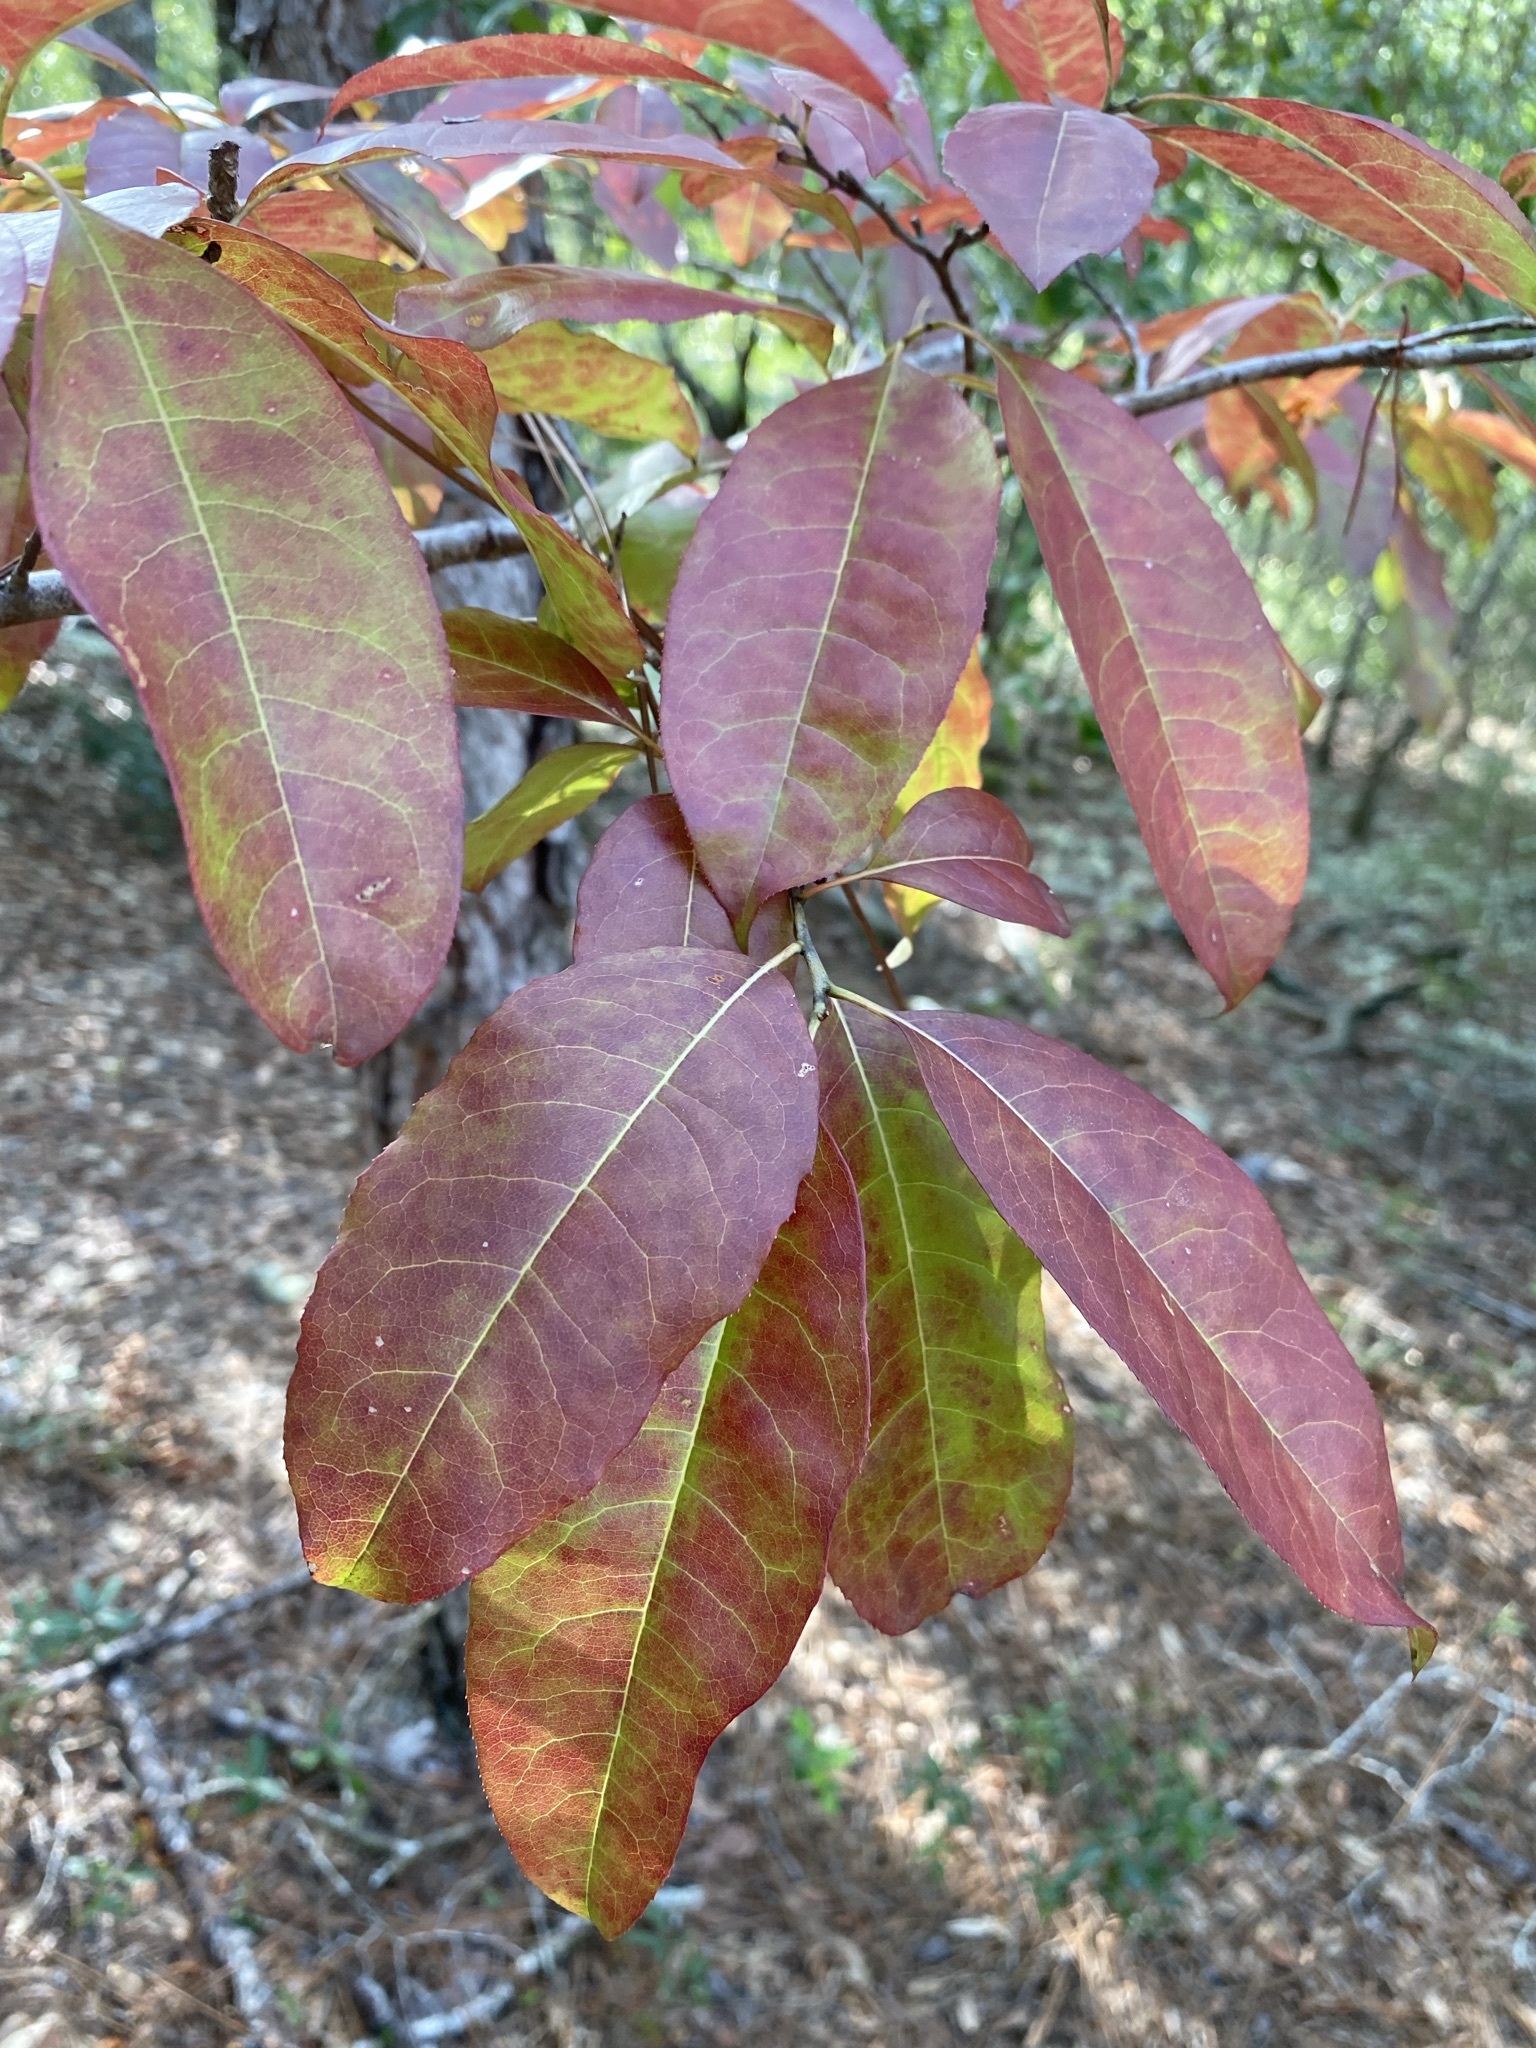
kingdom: Plantae
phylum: Tracheophyta
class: Magnoliopsida
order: Ericales
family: Ericaceae
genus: Oxydendrum
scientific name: Oxydendrum arboreum
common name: Sourwood
